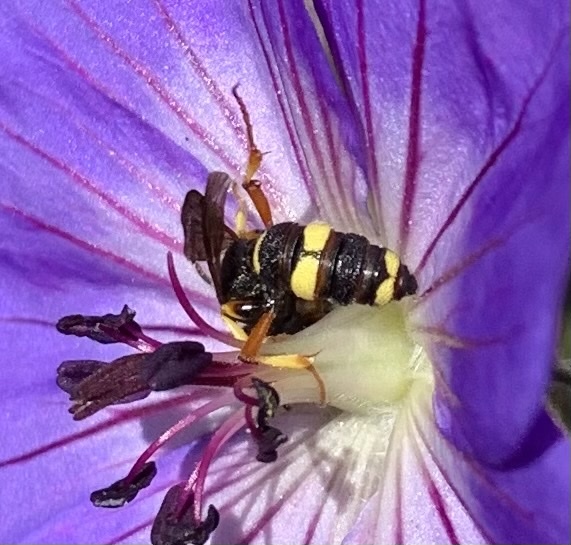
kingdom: Animalia
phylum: Arthropoda
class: Insecta
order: Hymenoptera
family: Crabronidae
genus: Cerceris
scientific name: Cerceris rybyensis
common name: Ornate tailed digger wasp
